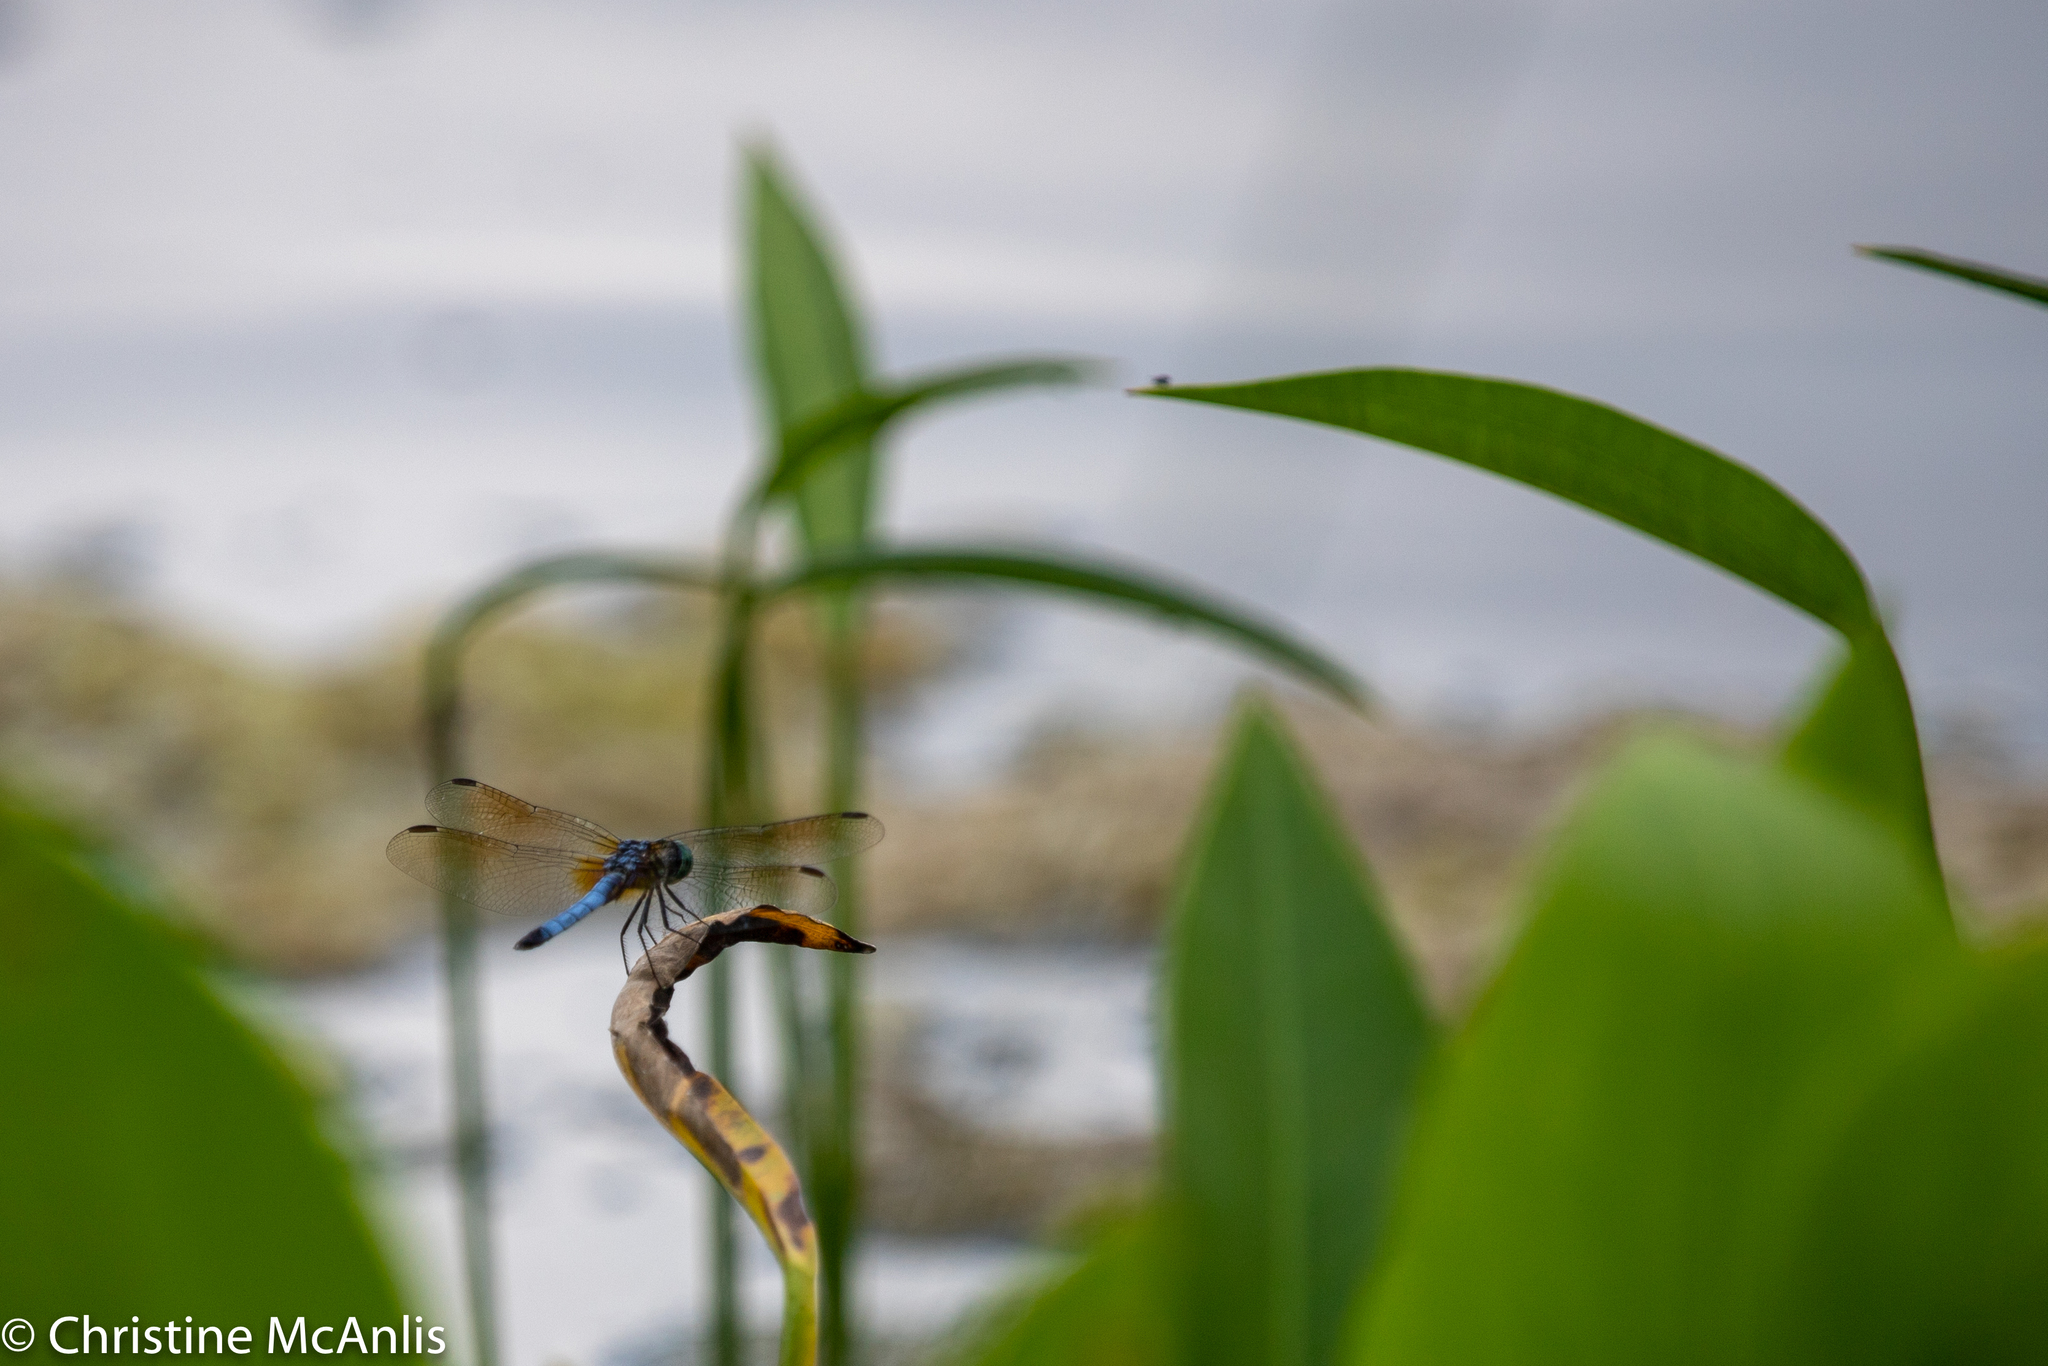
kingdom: Animalia
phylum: Arthropoda
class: Insecta
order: Odonata
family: Libellulidae
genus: Pachydiplax
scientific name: Pachydiplax longipennis
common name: Blue dasher
